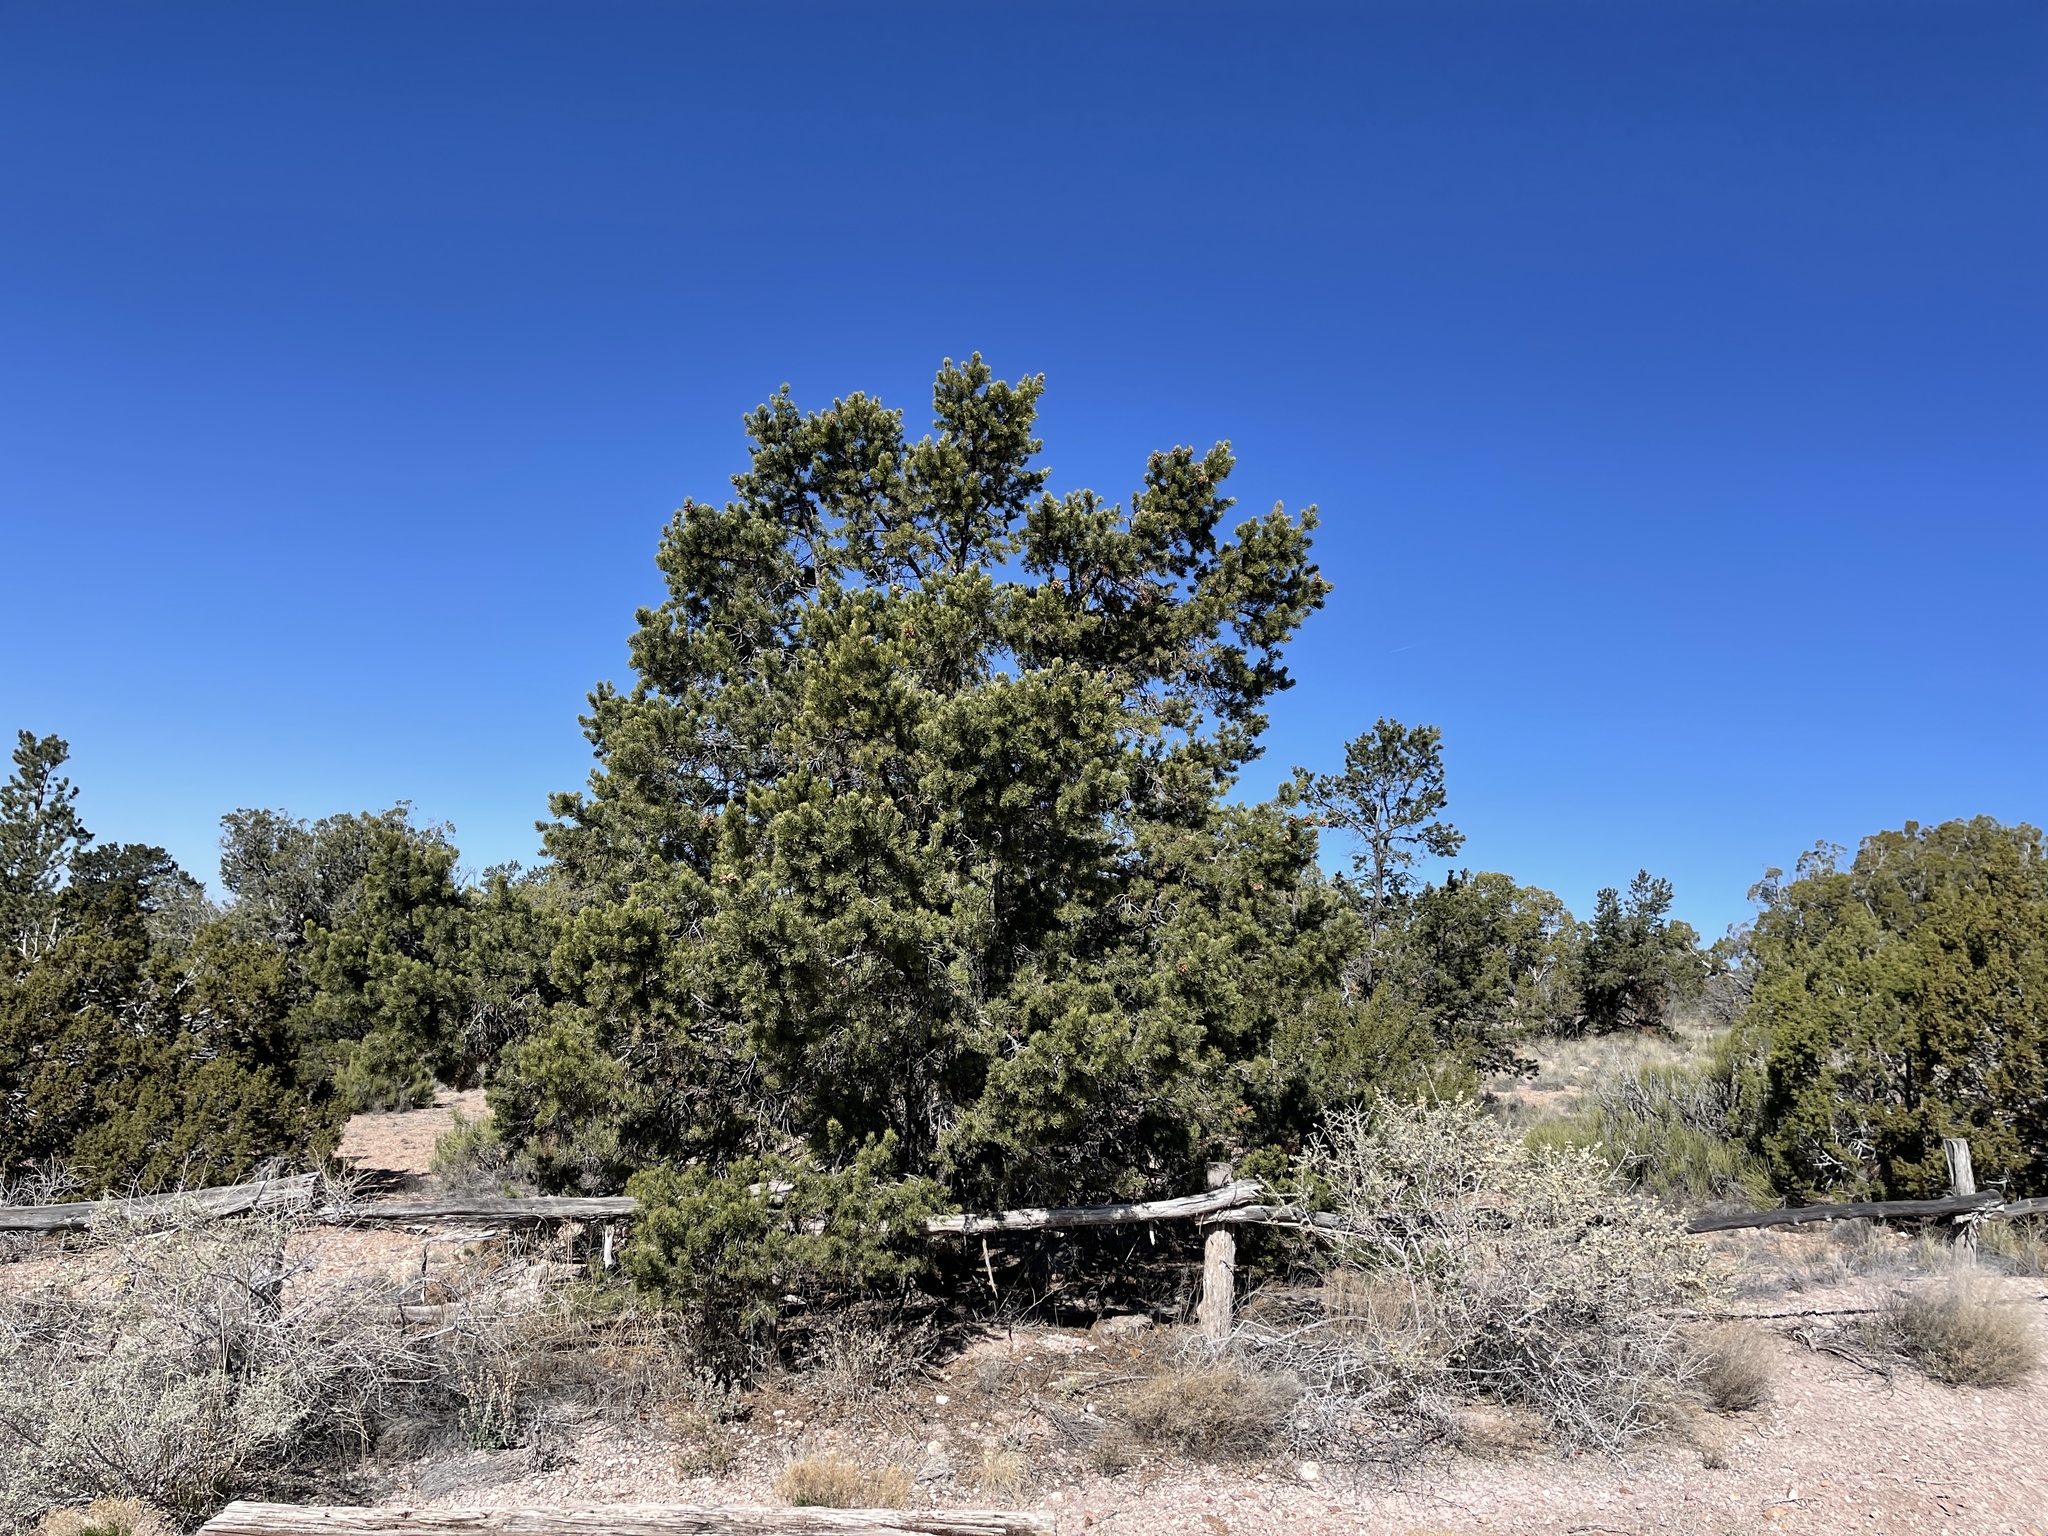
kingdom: Plantae
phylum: Tracheophyta
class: Pinopsida
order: Pinales
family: Pinaceae
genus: Pinus
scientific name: Pinus edulis
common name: Colorado pinyon
